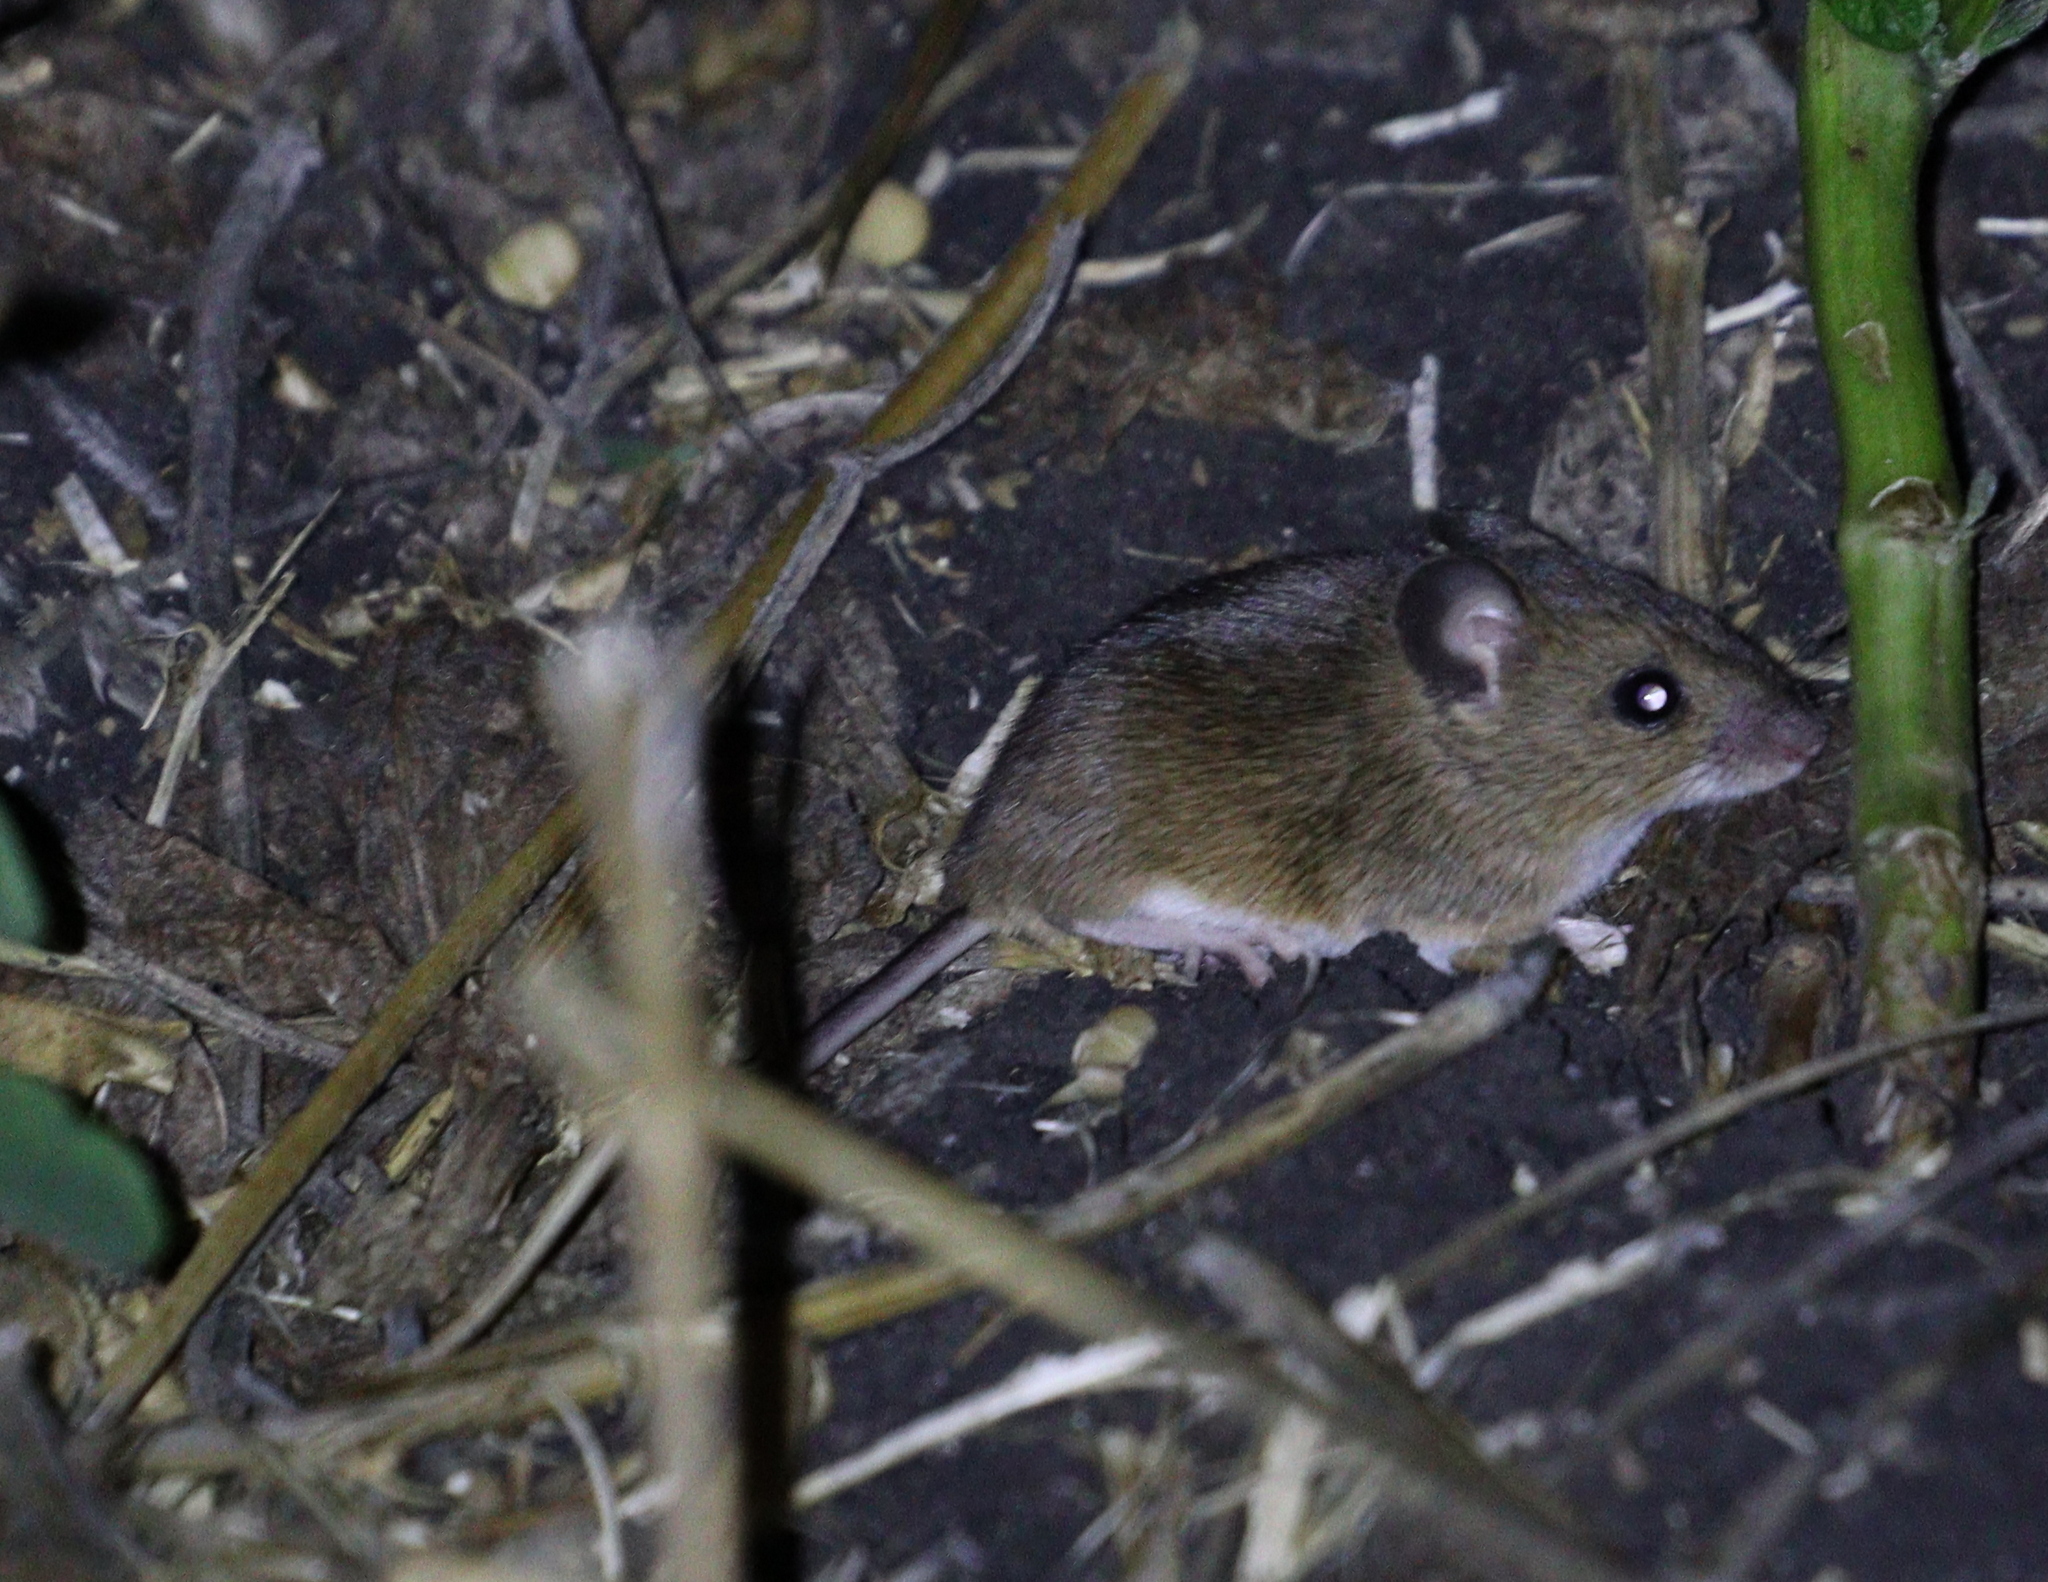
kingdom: Animalia
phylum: Chordata
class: Mammalia
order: Rodentia
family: Muridae
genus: Apodemus
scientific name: Apodemus uralensis
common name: Herb field mouse
